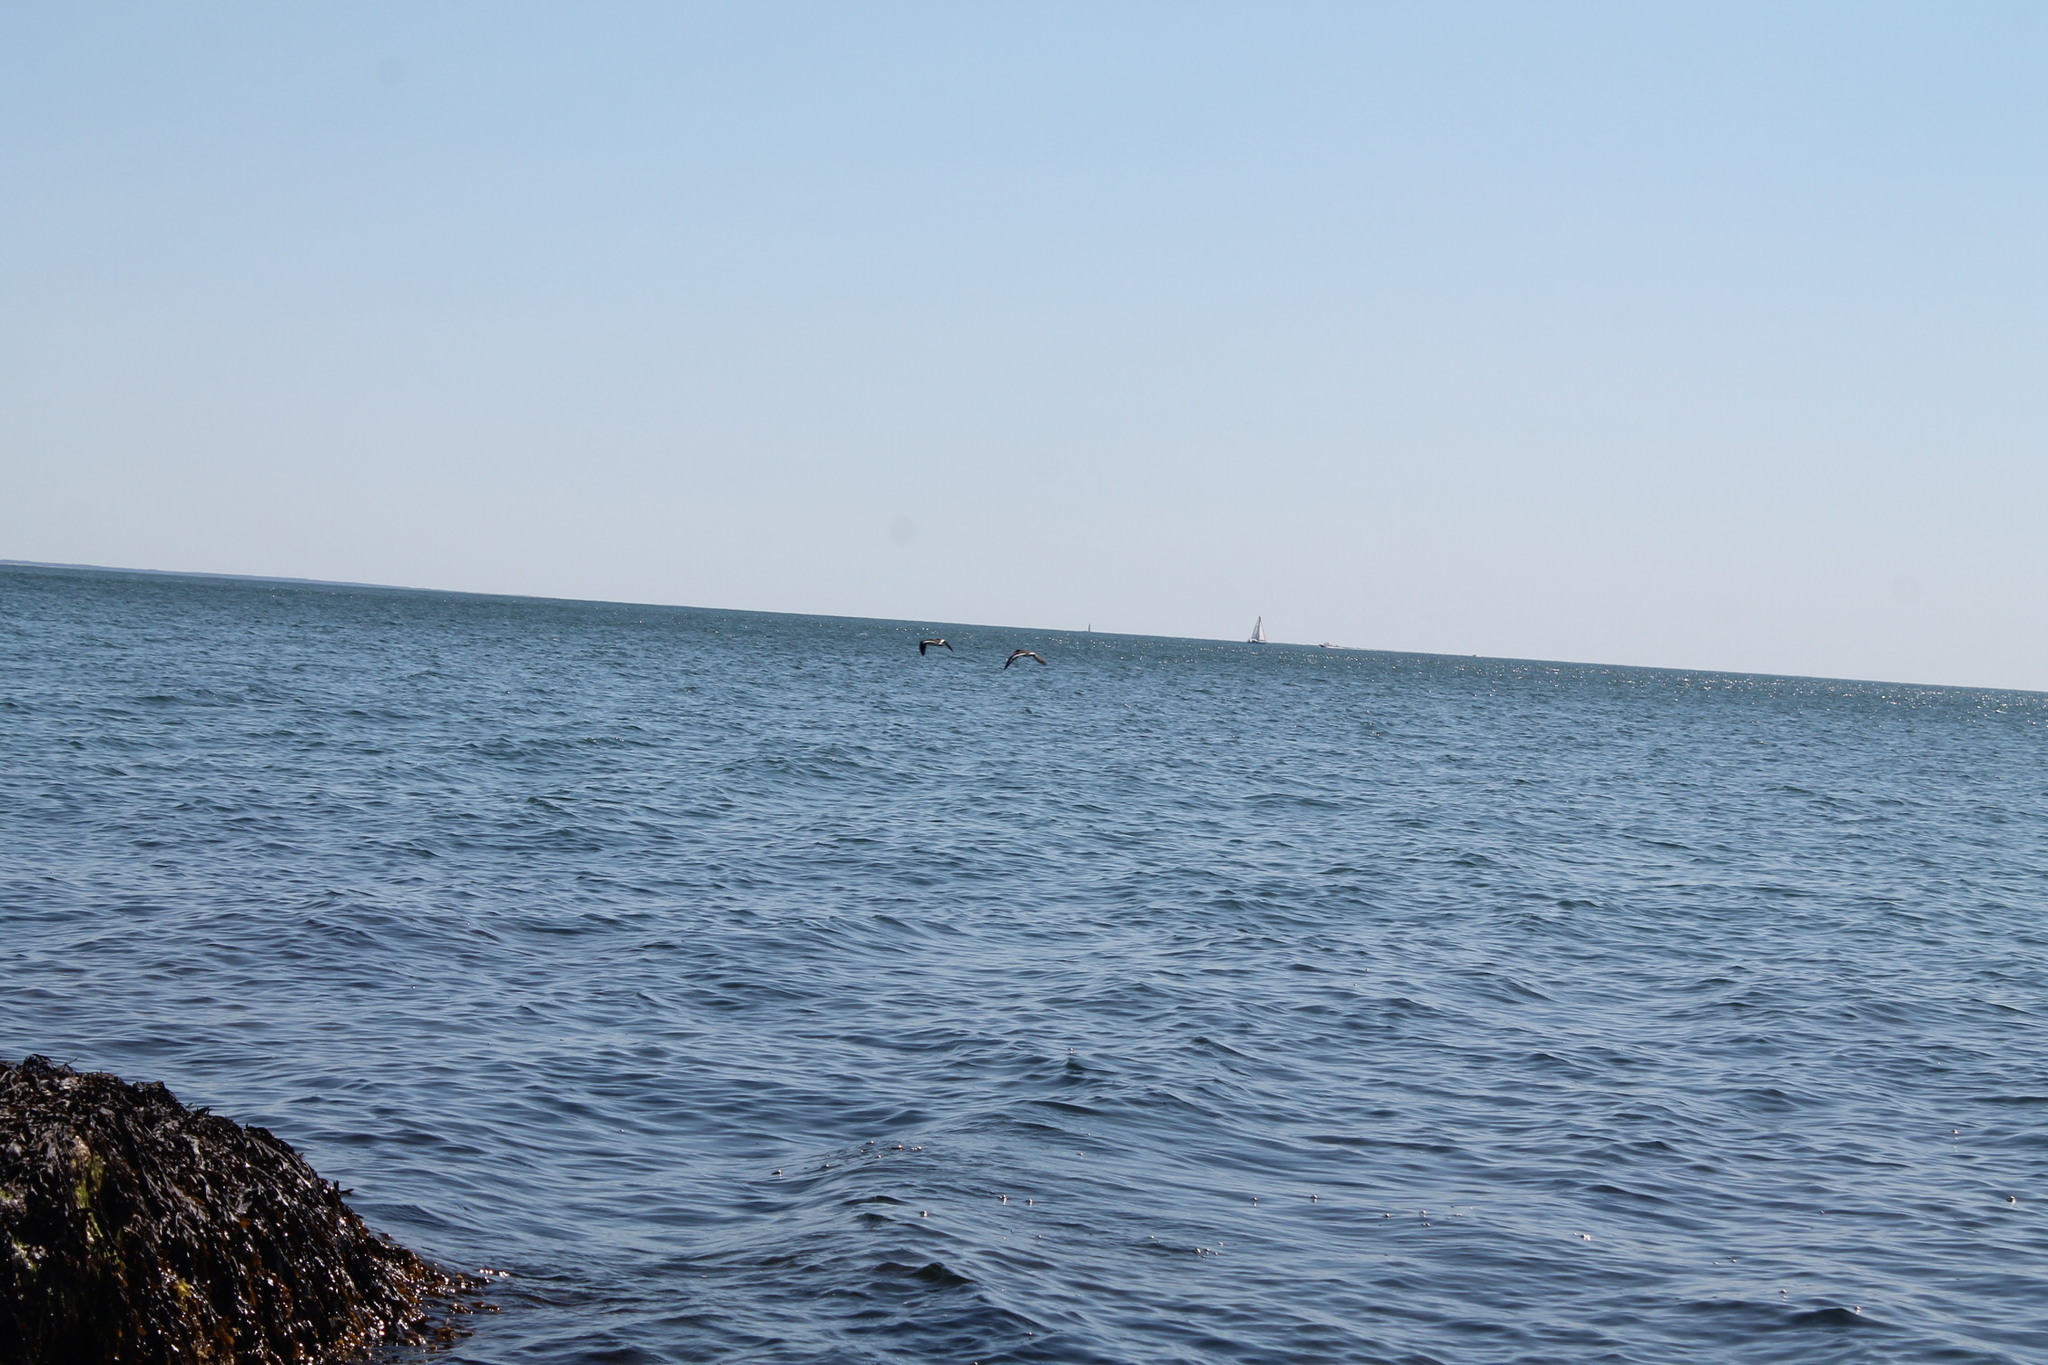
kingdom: Animalia
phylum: Chordata
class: Aves
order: Charadriiformes
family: Haematopodidae
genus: Haematopus
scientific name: Haematopus palliatus
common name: American oystercatcher
